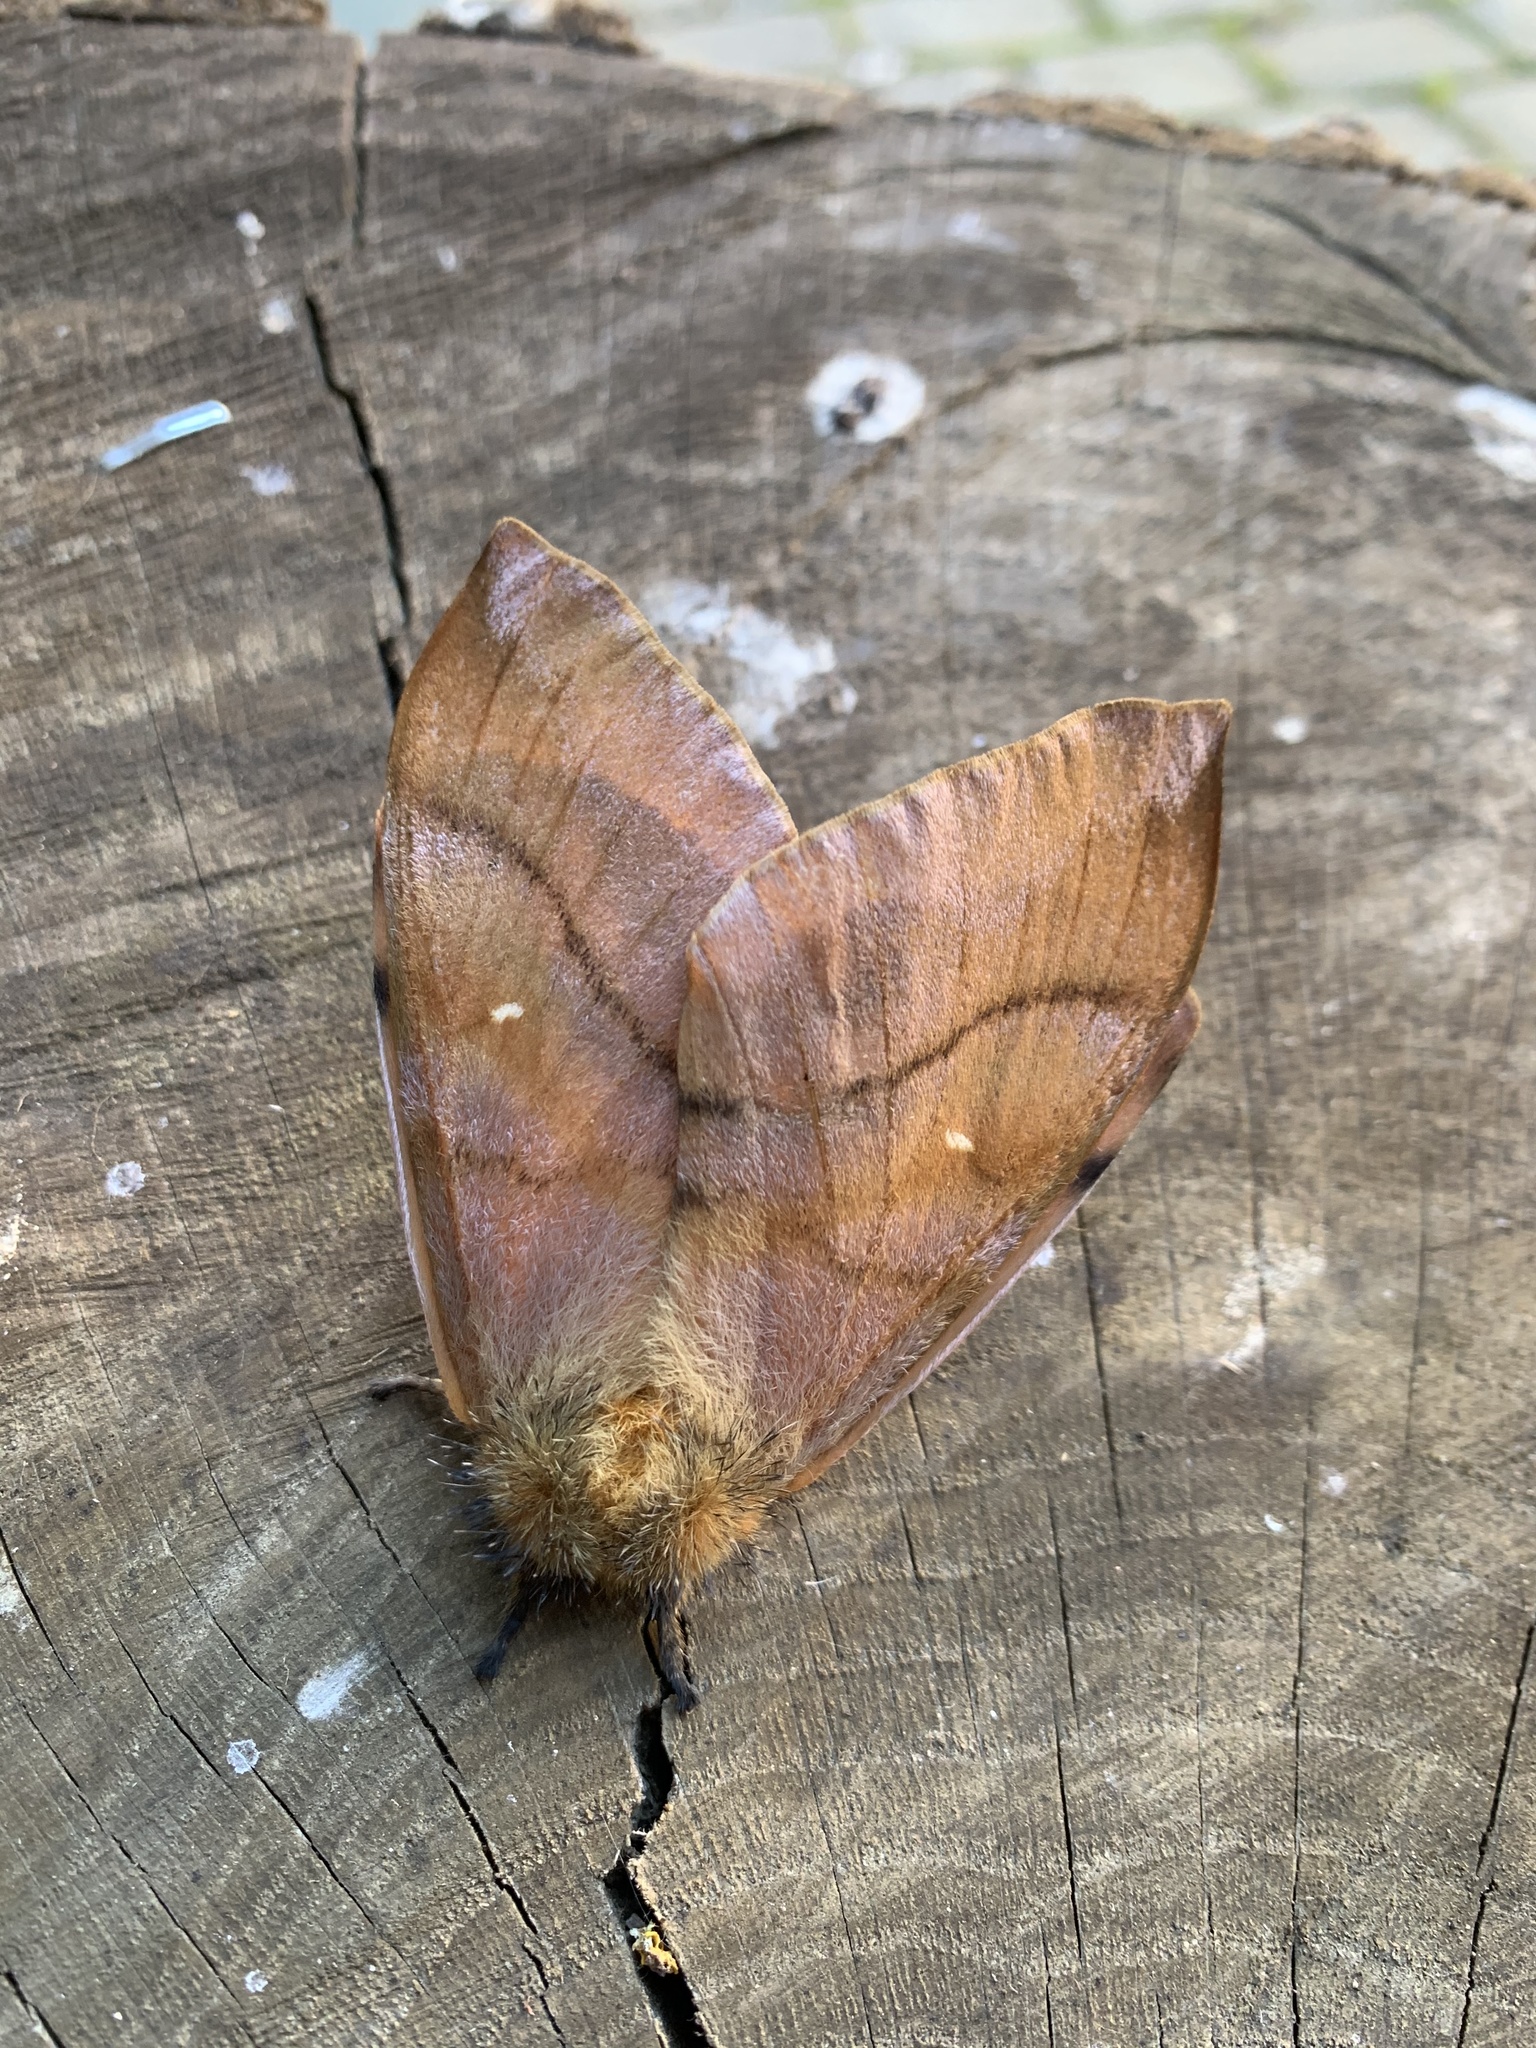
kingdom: Animalia
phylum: Arthropoda
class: Insecta
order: Lepidoptera
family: Saturniidae
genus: Ormiscodes
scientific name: Ormiscodes cinnamomea
